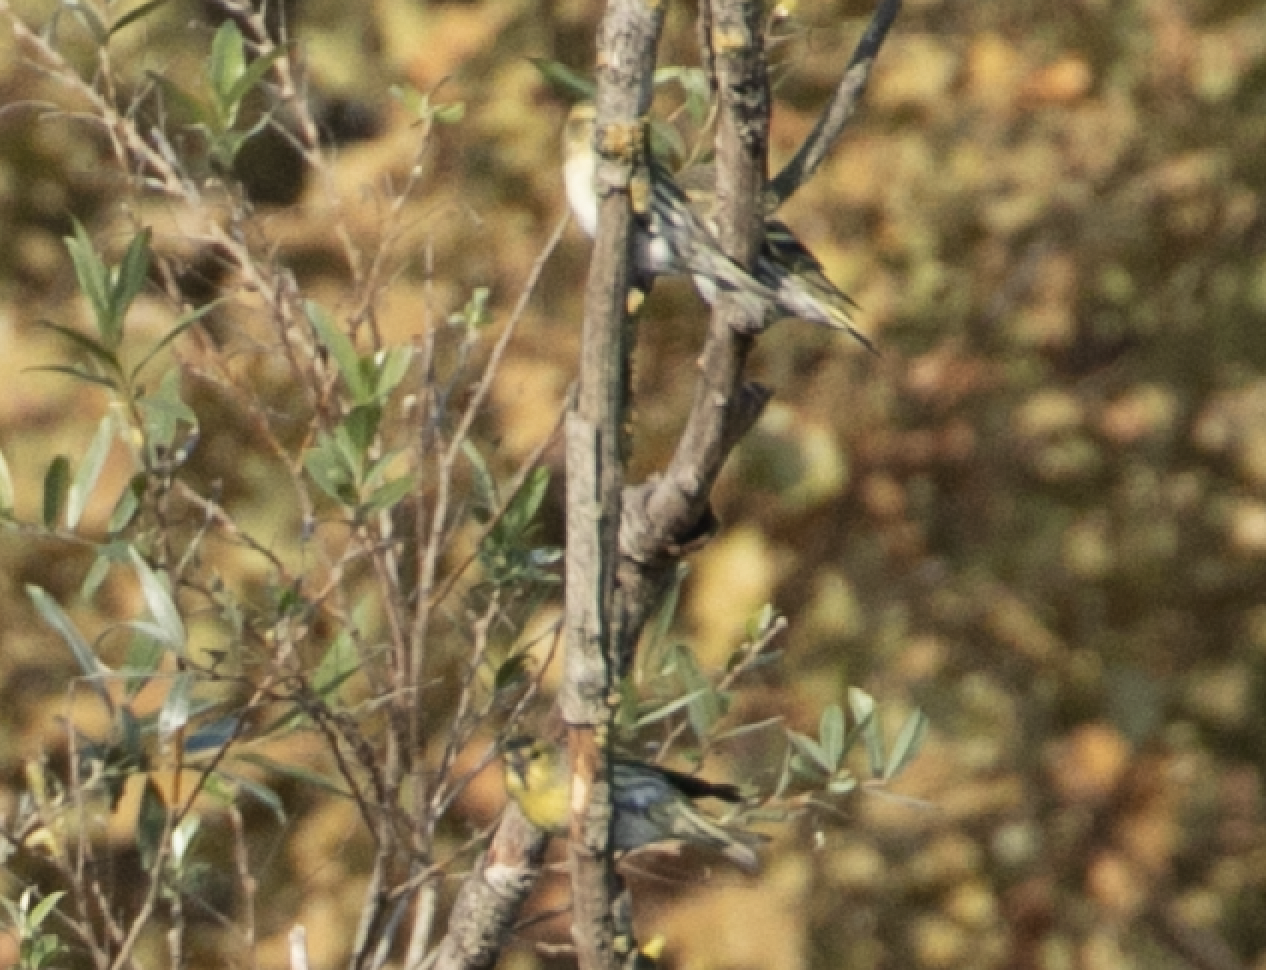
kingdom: Animalia
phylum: Chordata
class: Aves
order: Passeriformes
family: Fringillidae
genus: Spinus
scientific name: Spinus spinus
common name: Eurasian siskin
